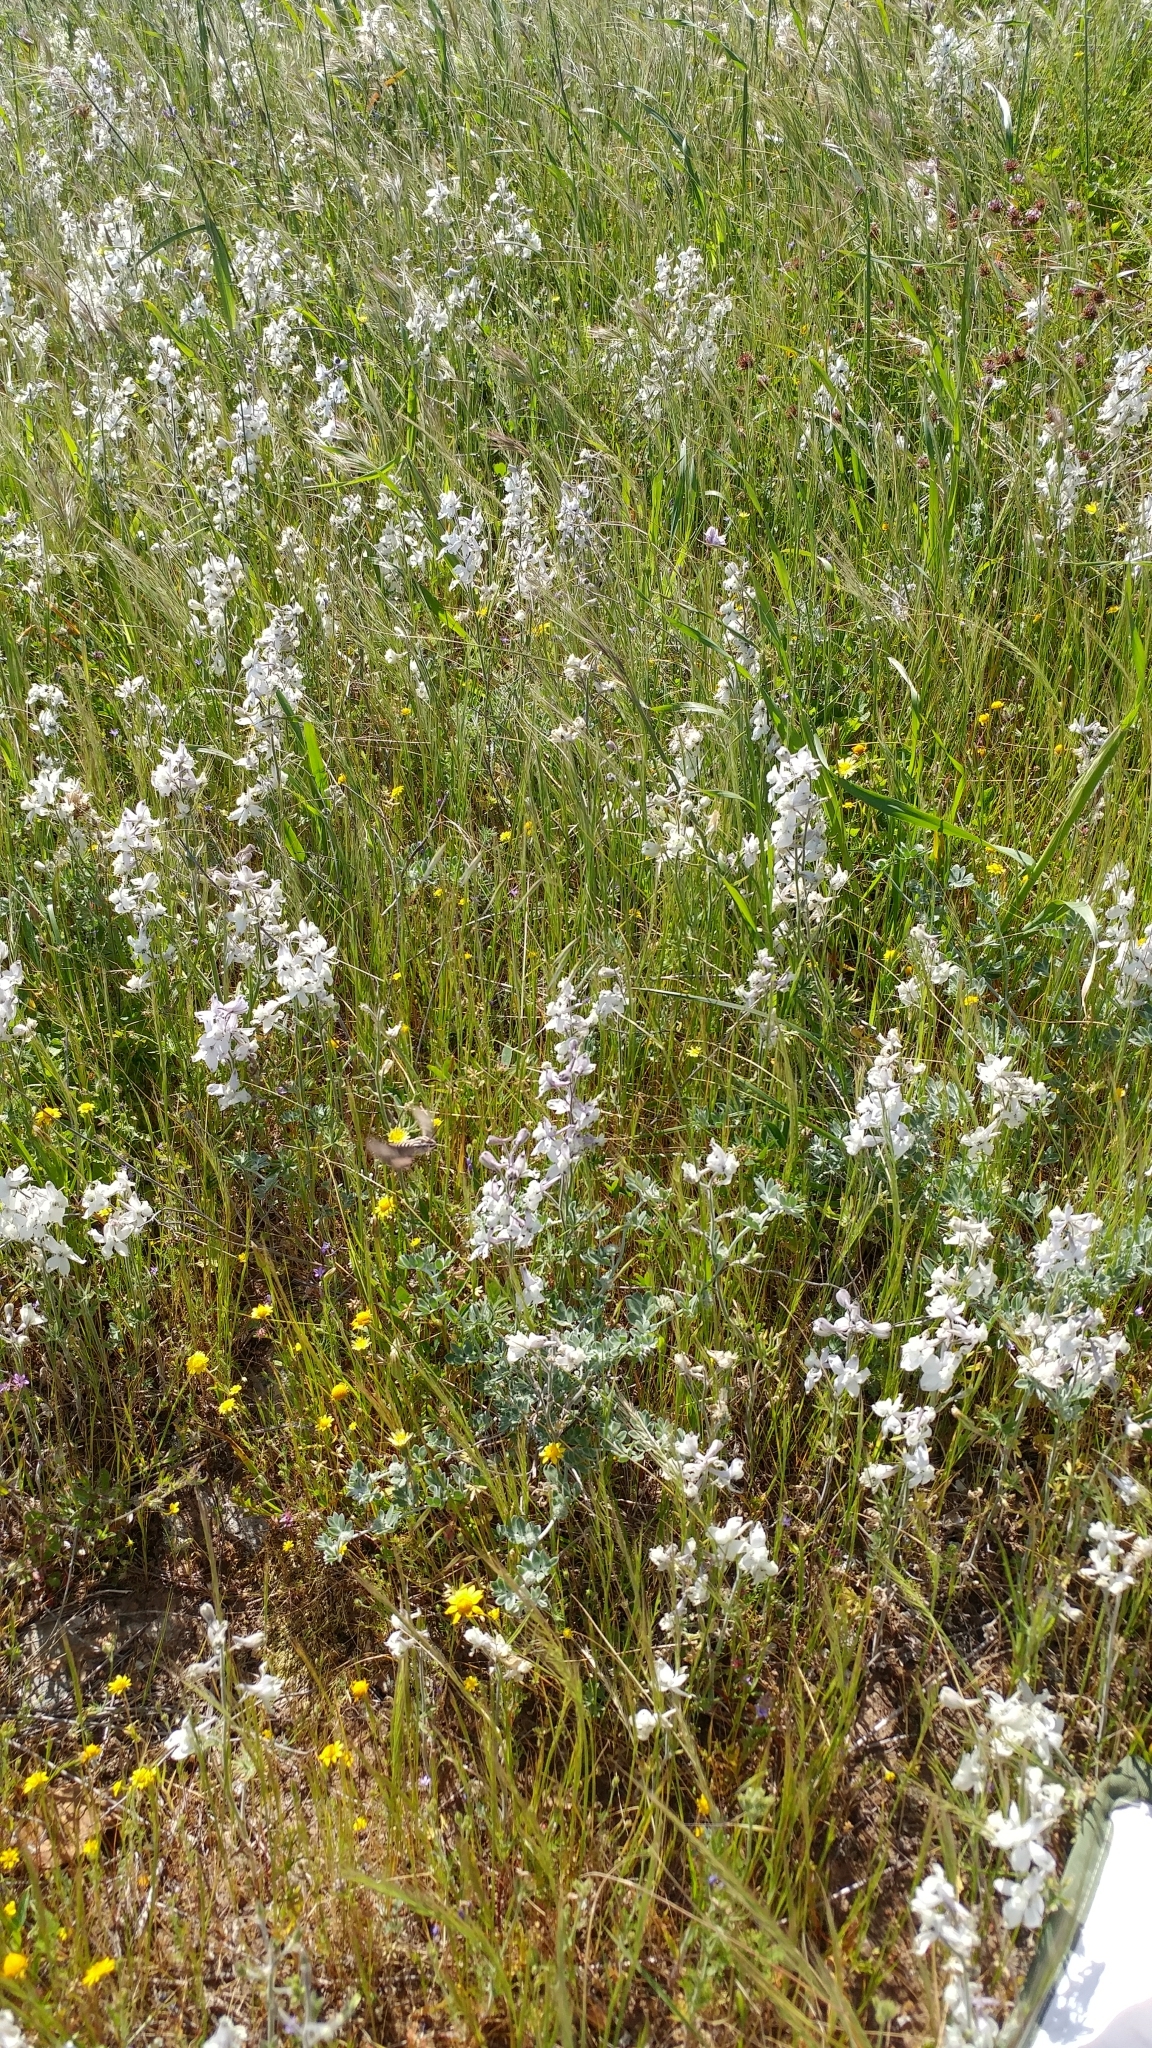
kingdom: Plantae
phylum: Tracheophyta
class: Magnoliopsida
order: Ranunculales
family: Ranunculaceae
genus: Delphinium
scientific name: Delphinium variegatum
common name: Royal larkspur
